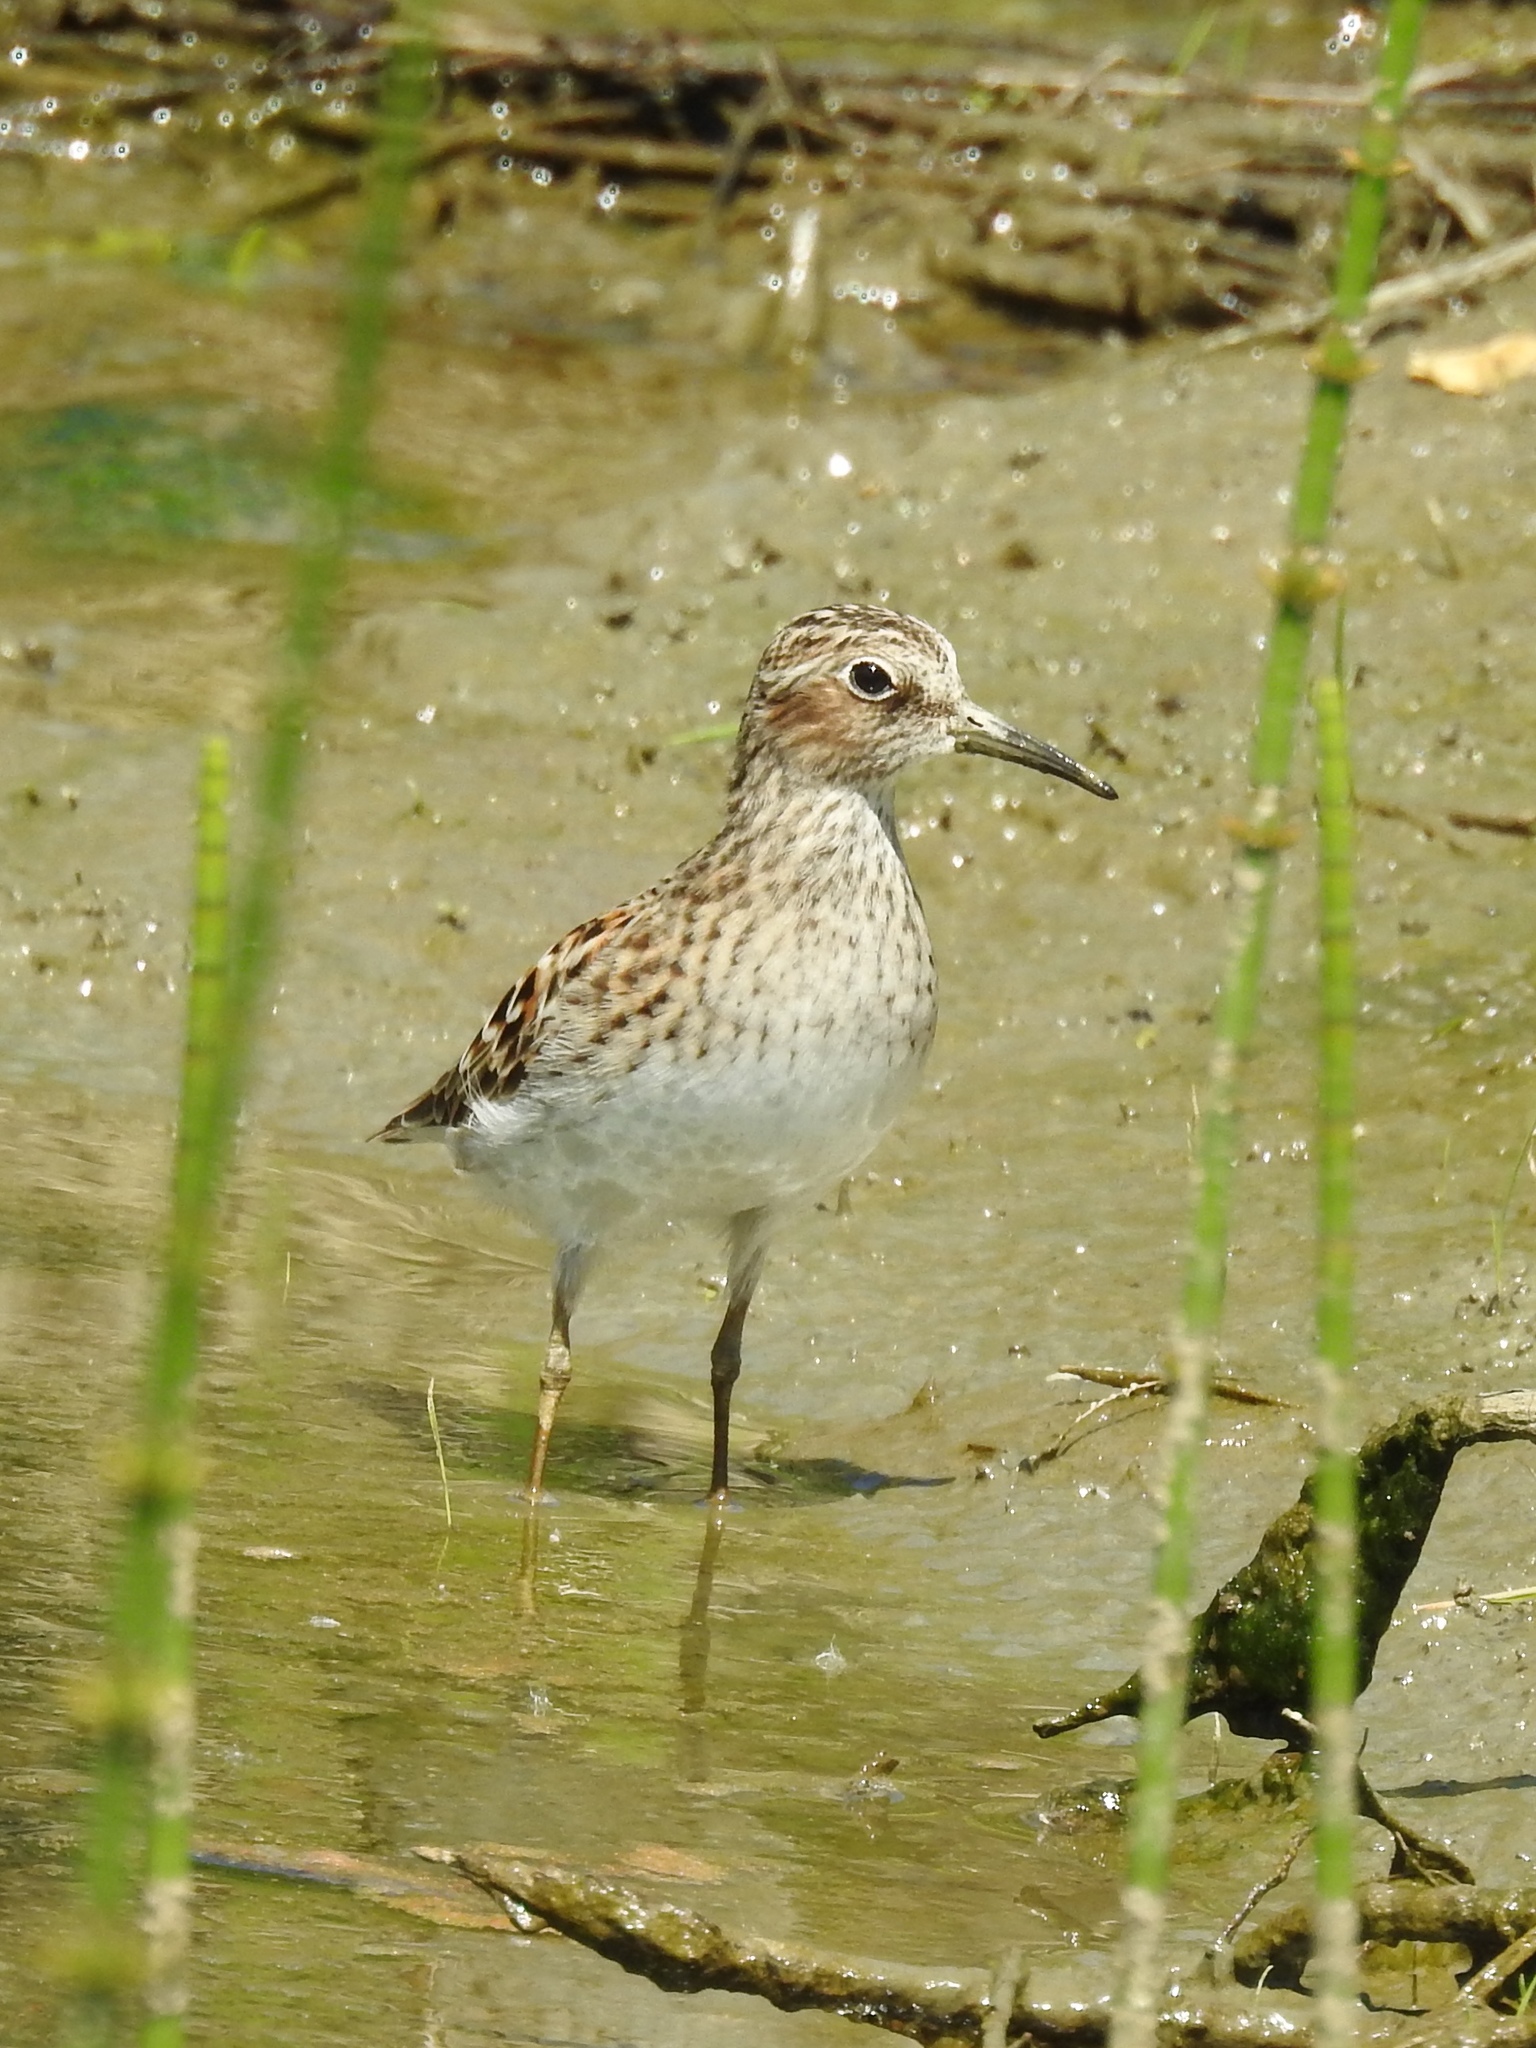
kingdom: Animalia
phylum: Chordata
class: Aves
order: Charadriiformes
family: Scolopacidae
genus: Calidris
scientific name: Calidris minutilla
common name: Least sandpiper
